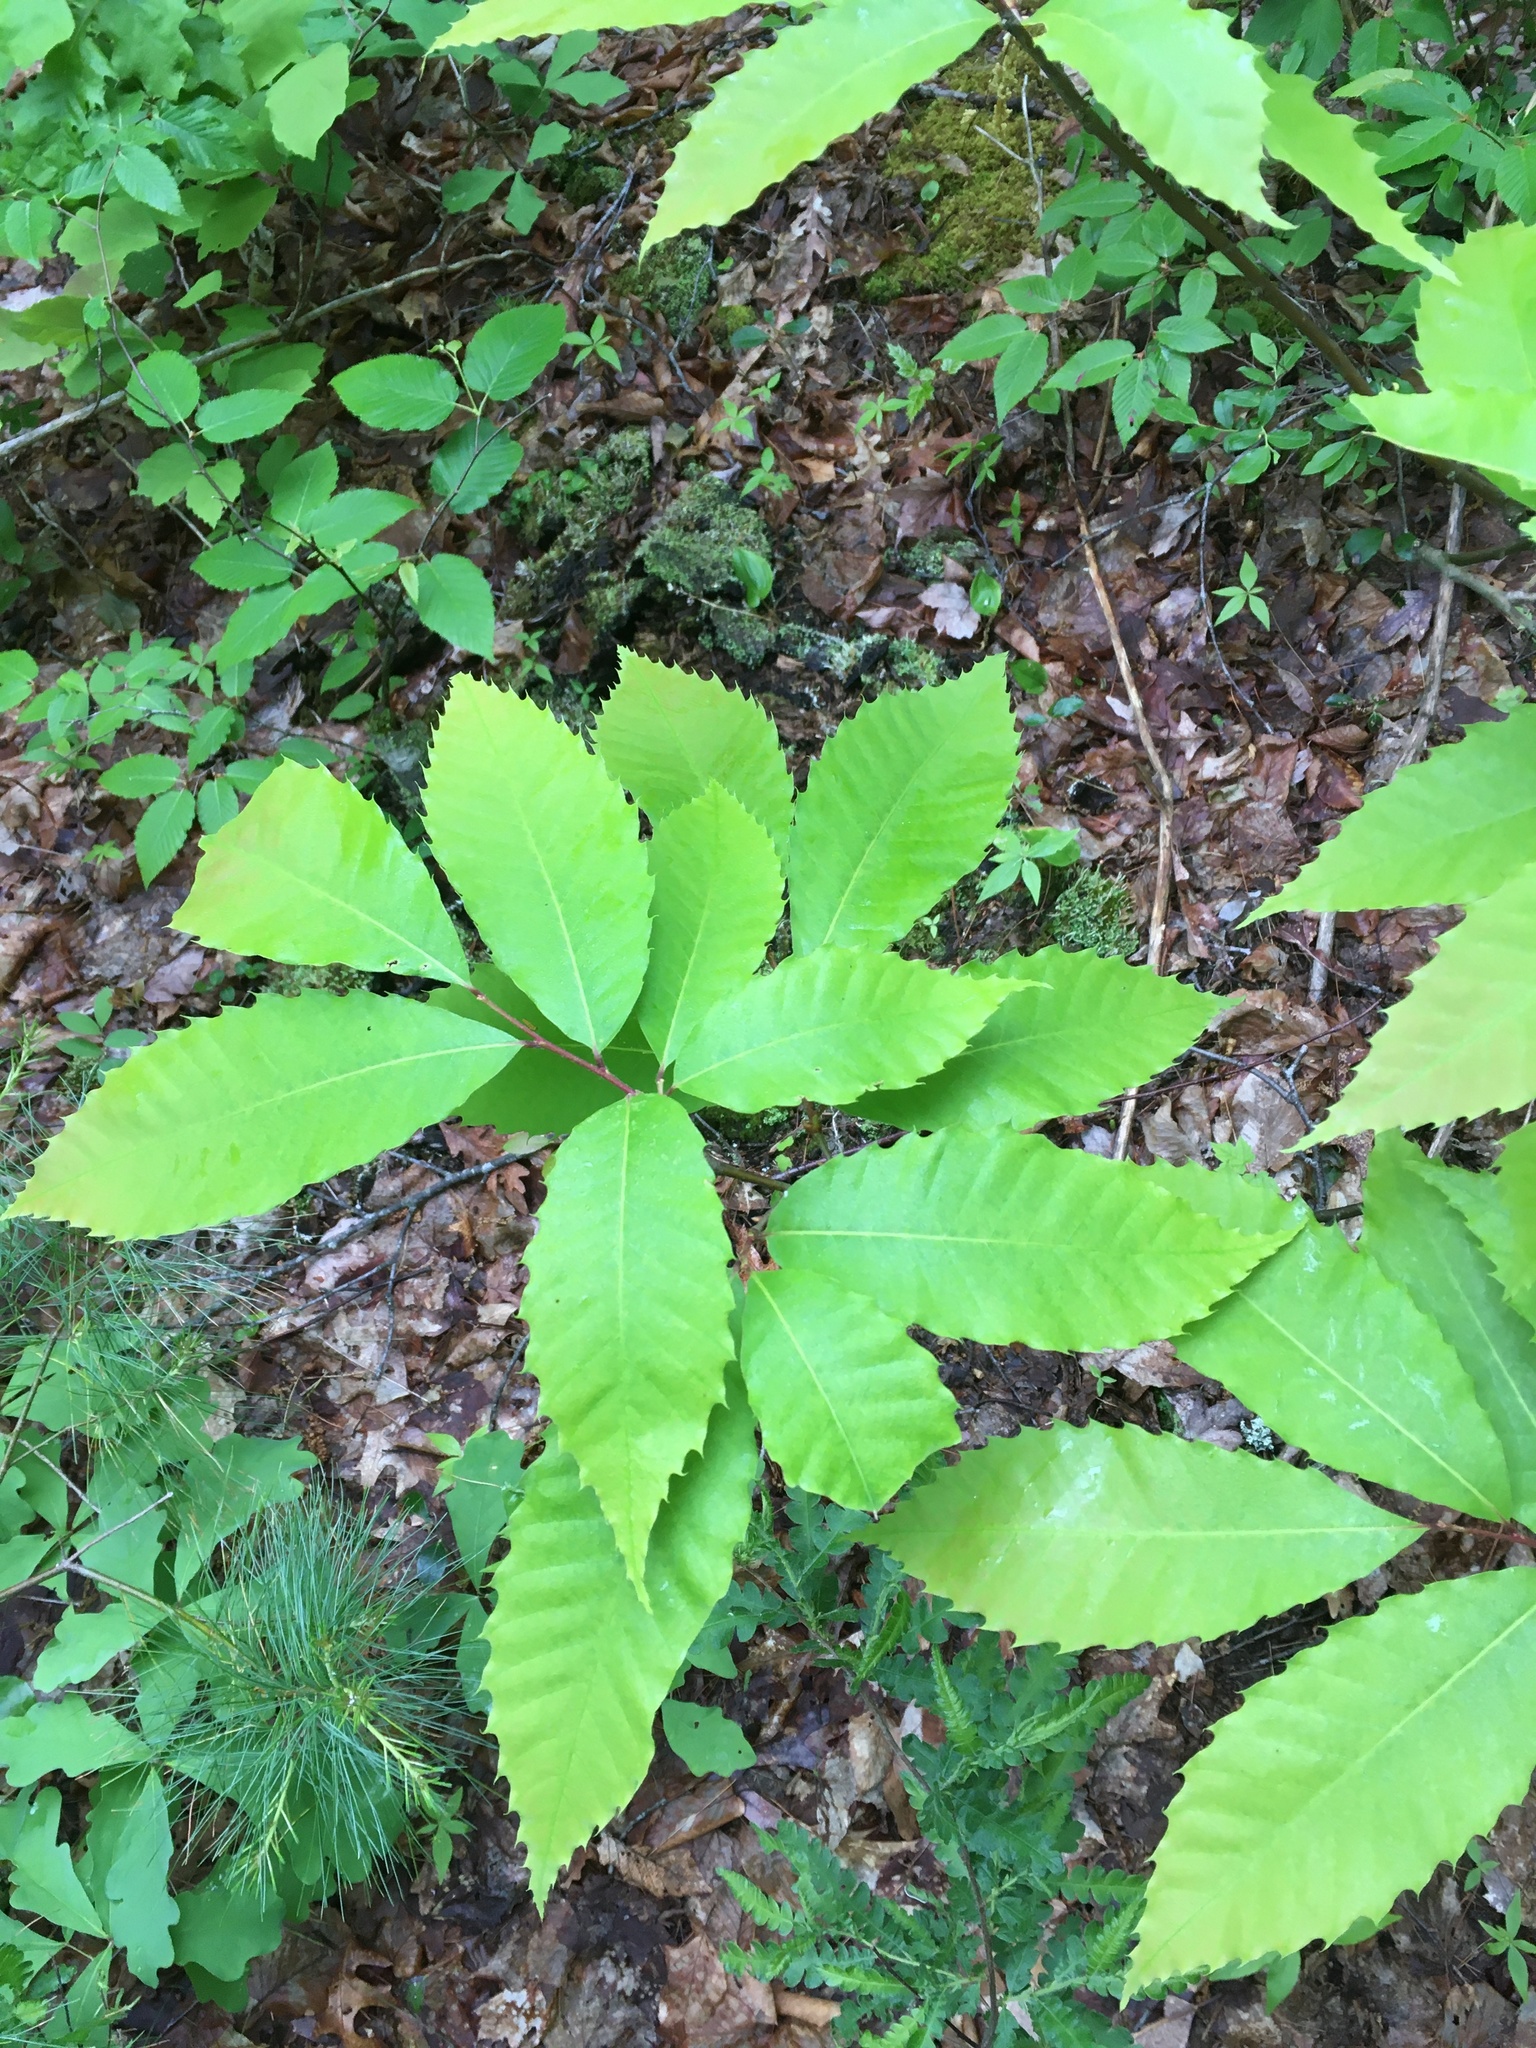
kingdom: Plantae
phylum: Tracheophyta
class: Magnoliopsida
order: Fagales
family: Fagaceae
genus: Castanea
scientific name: Castanea dentata
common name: American chestnut
